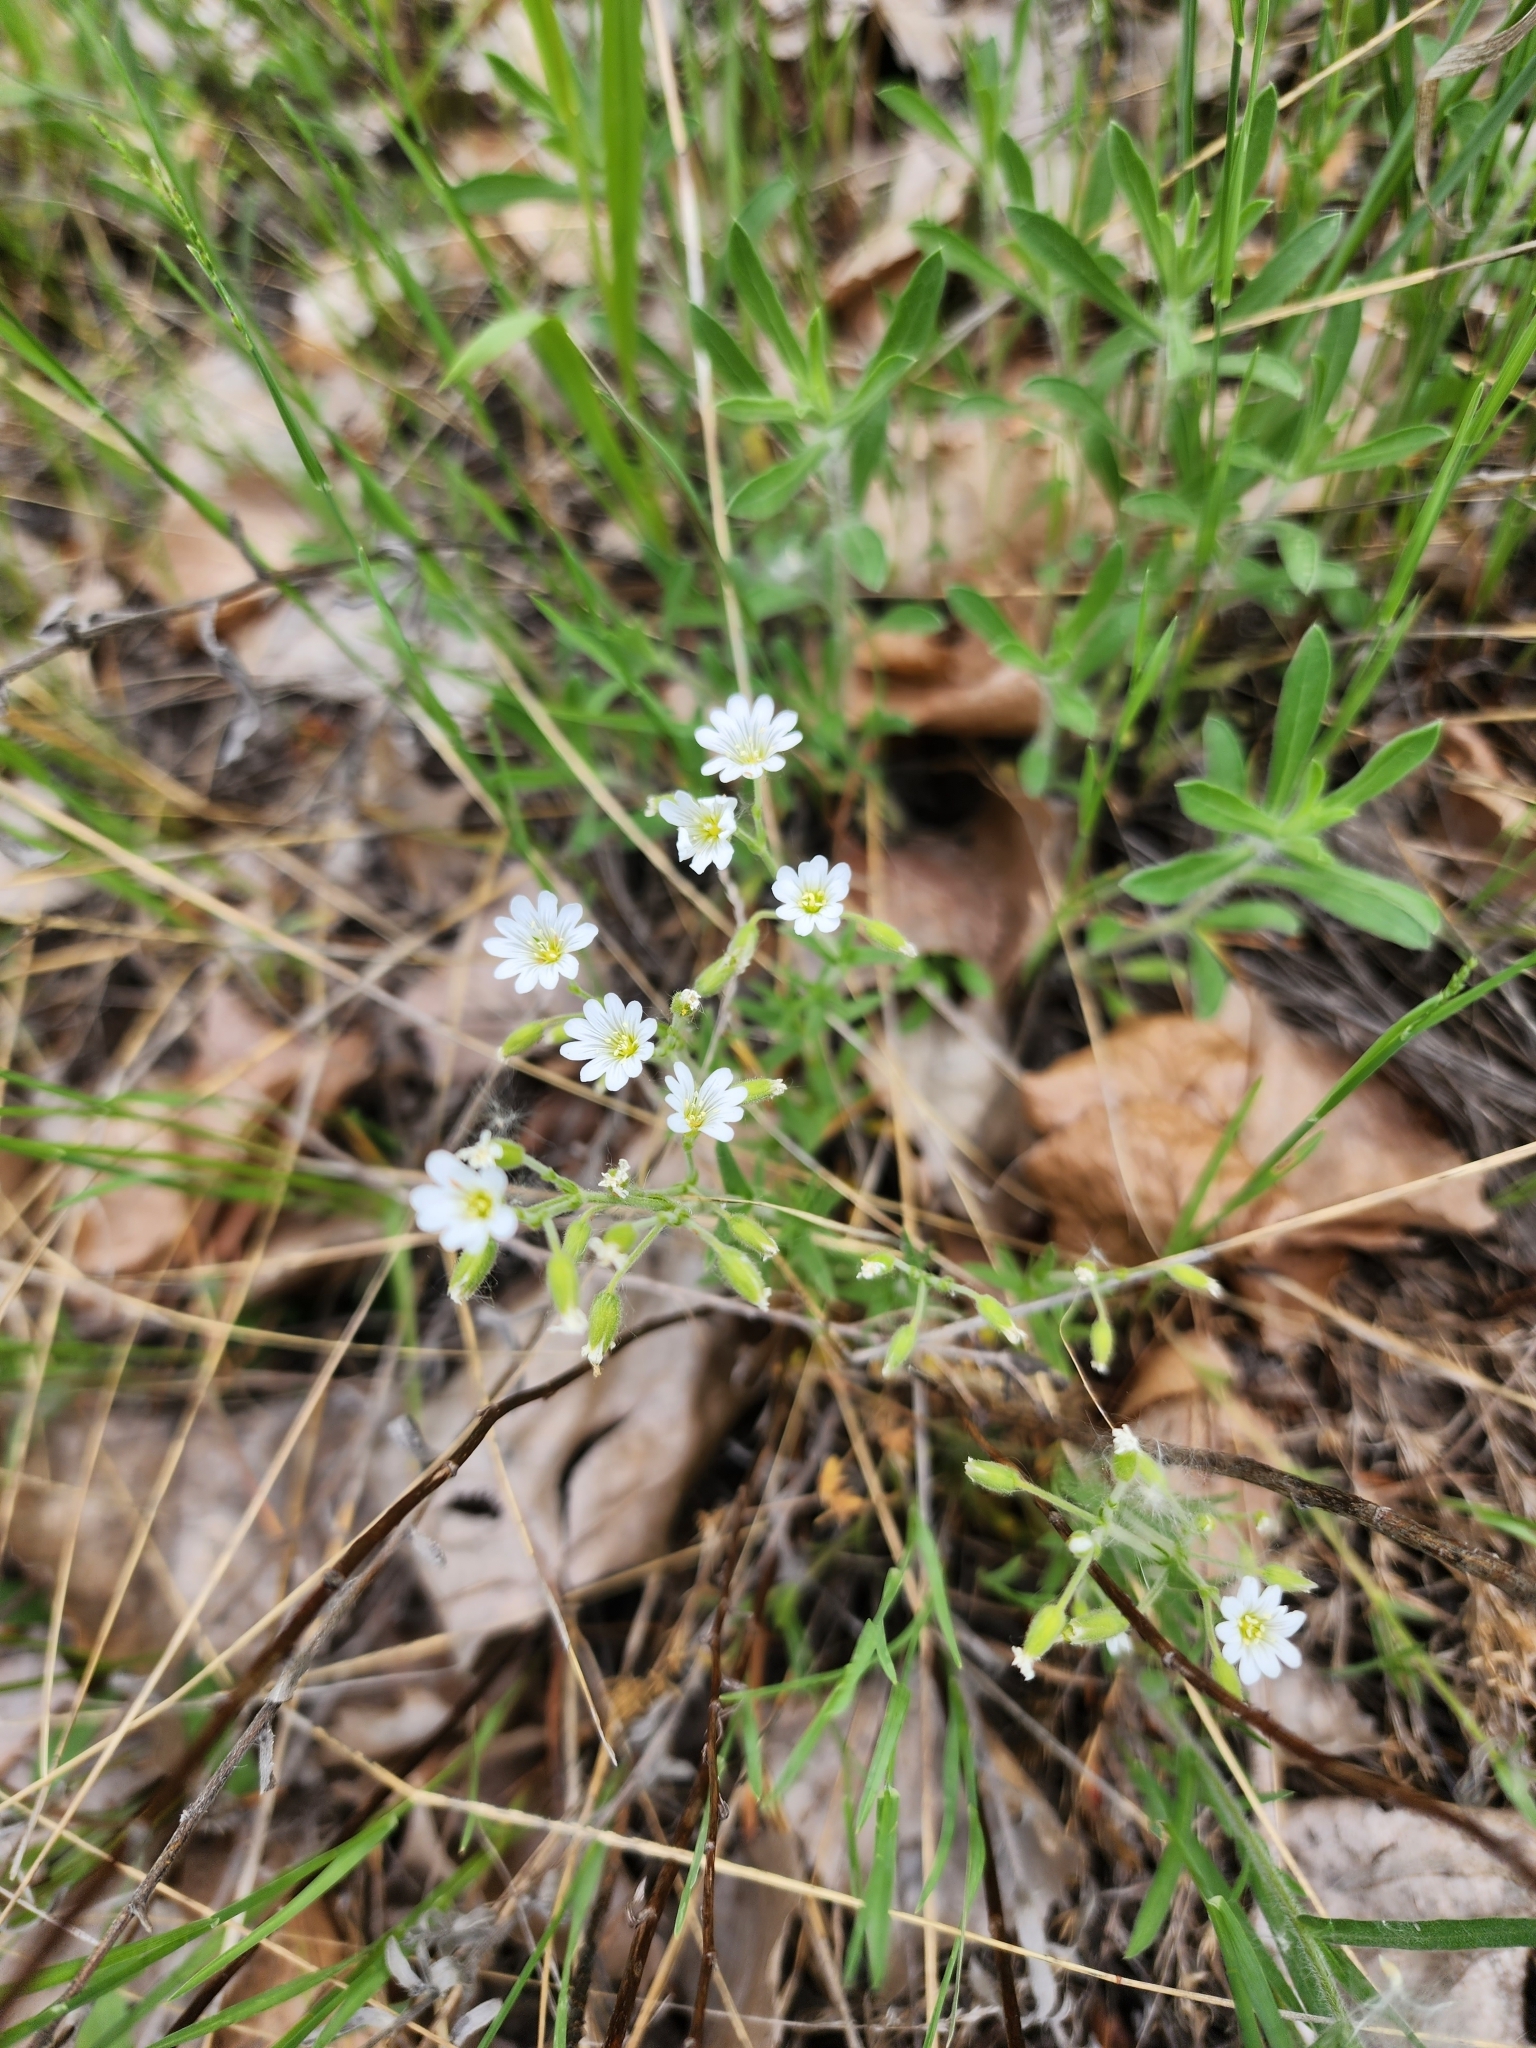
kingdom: Plantae
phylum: Tracheophyta
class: Magnoliopsida
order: Caryophyllales
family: Caryophyllaceae
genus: Cerastium
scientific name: Cerastium arvense
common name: Field mouse-ear
